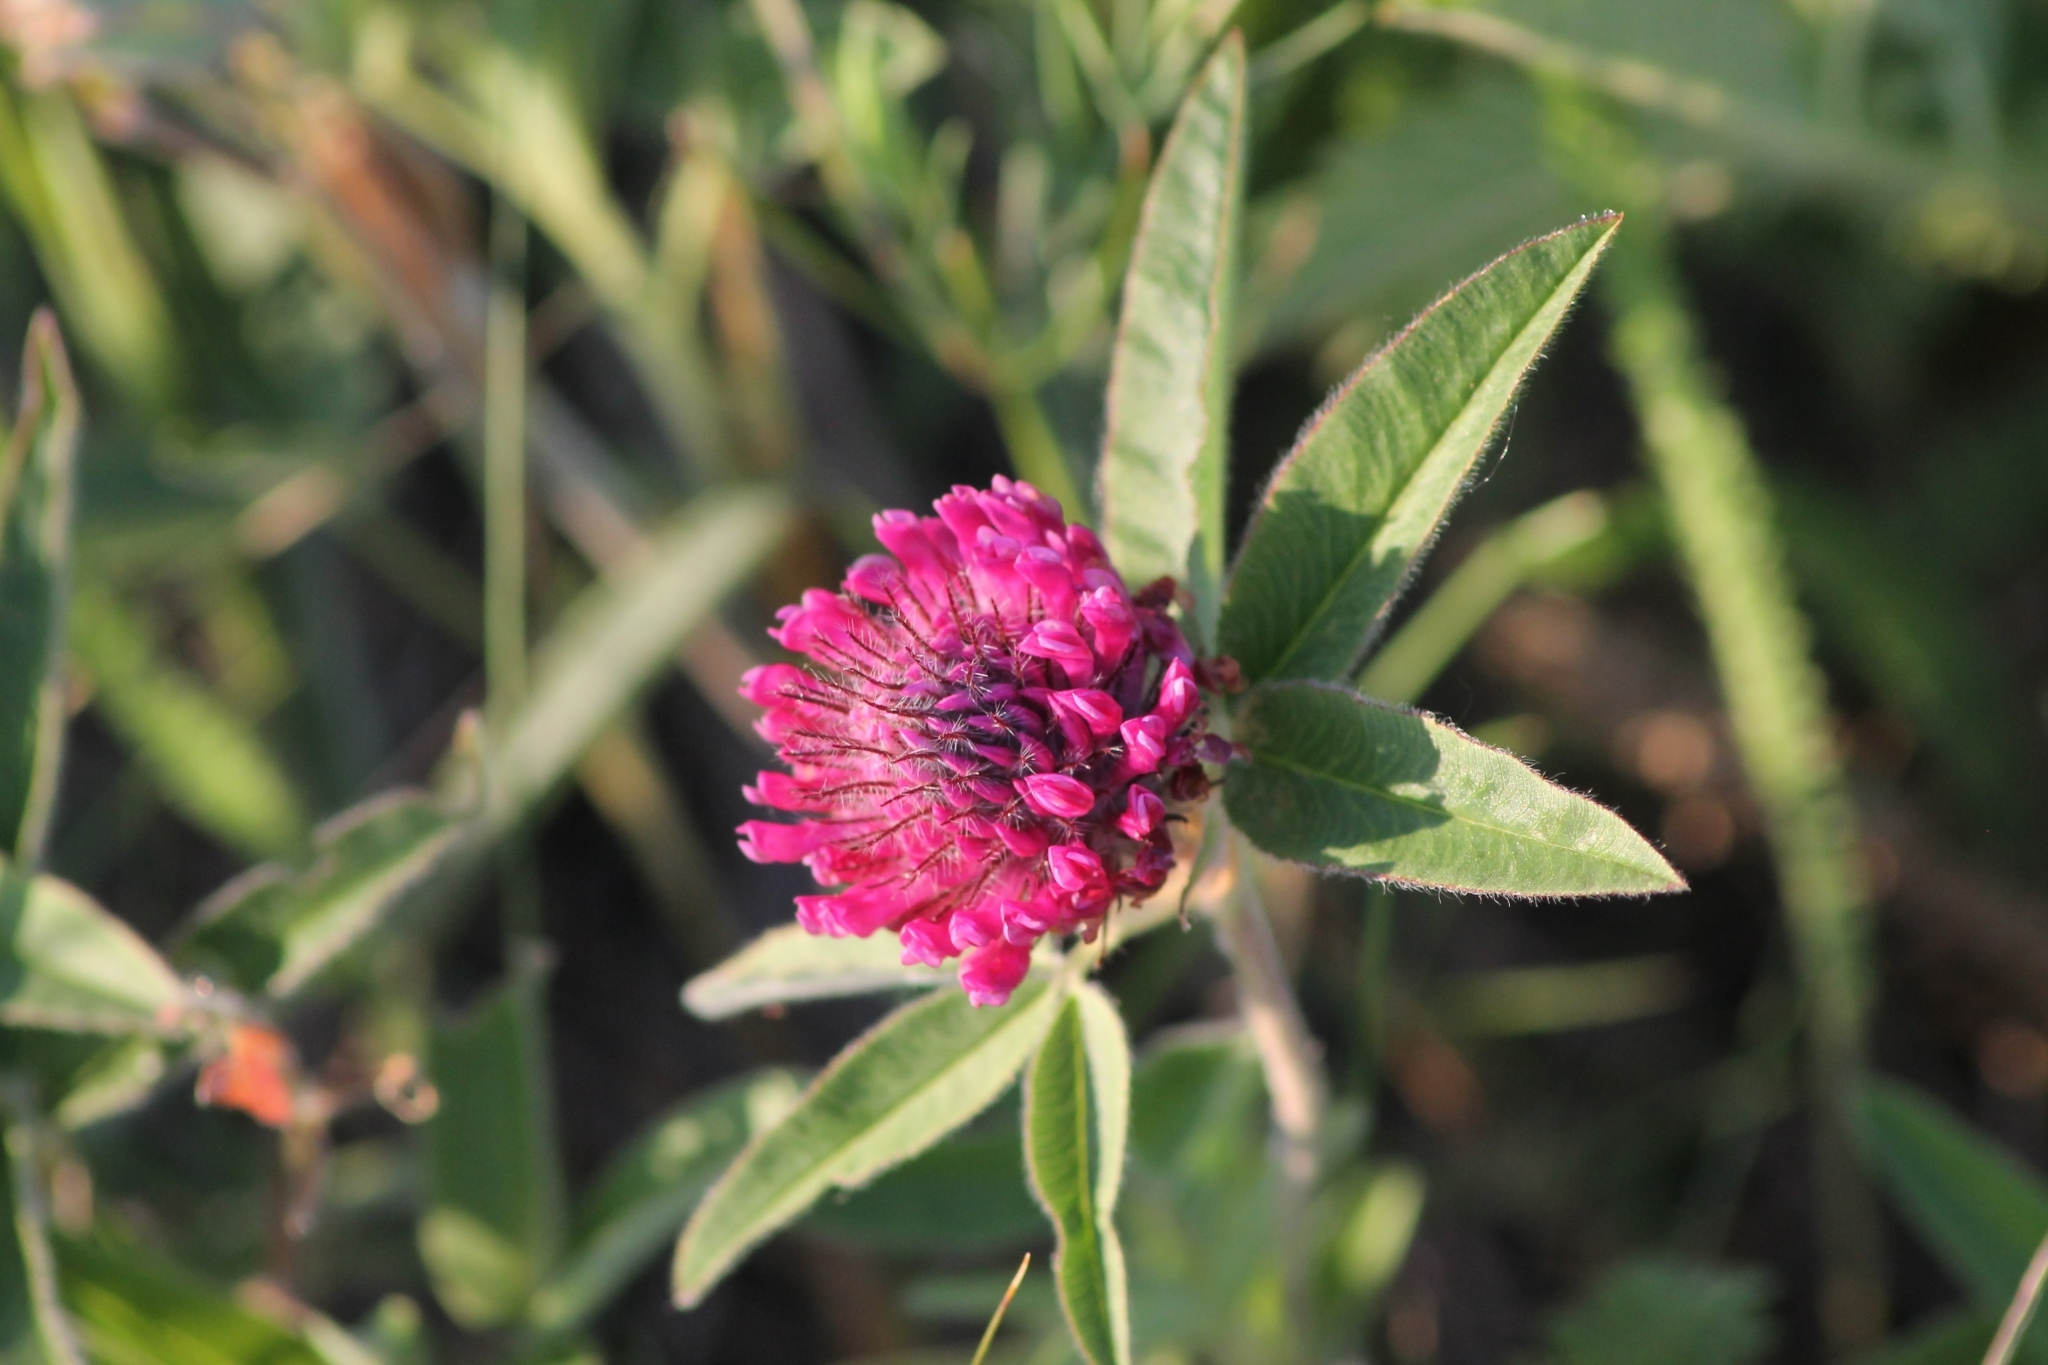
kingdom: Plantae
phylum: Tracheophyta
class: Magnoliopsida
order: Fabales
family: Fabaceae
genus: Trifolium
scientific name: Trifolium alpestre
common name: Owl-head clover
